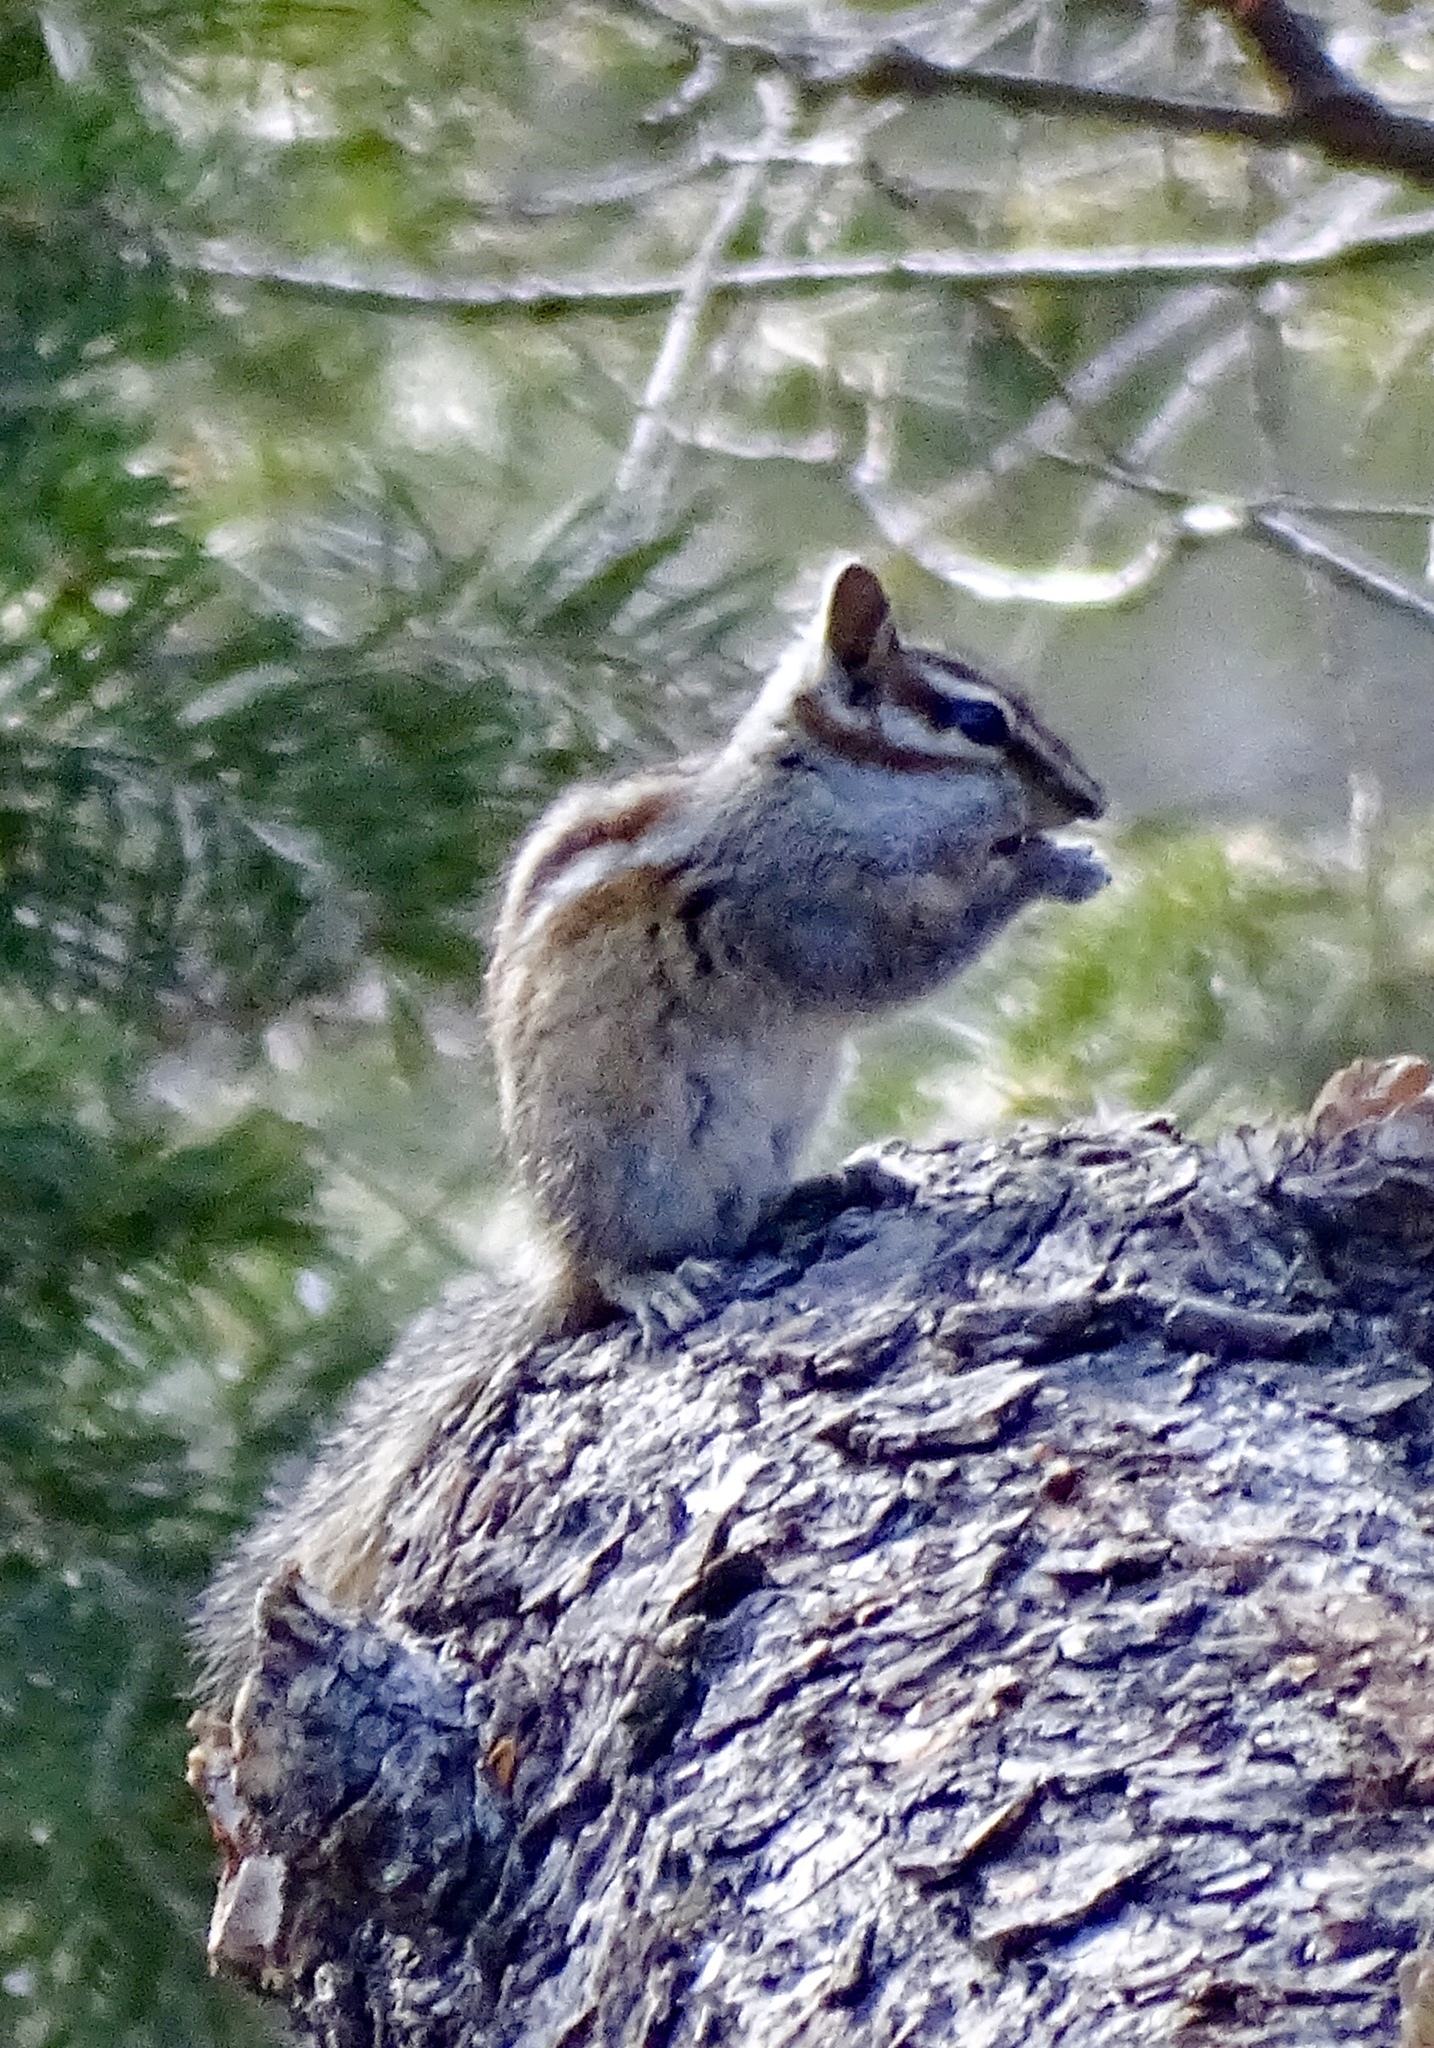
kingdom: Animalia
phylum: Chordata
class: Mammalia
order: Rodentia
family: Sciuridae
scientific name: Sciuridae
